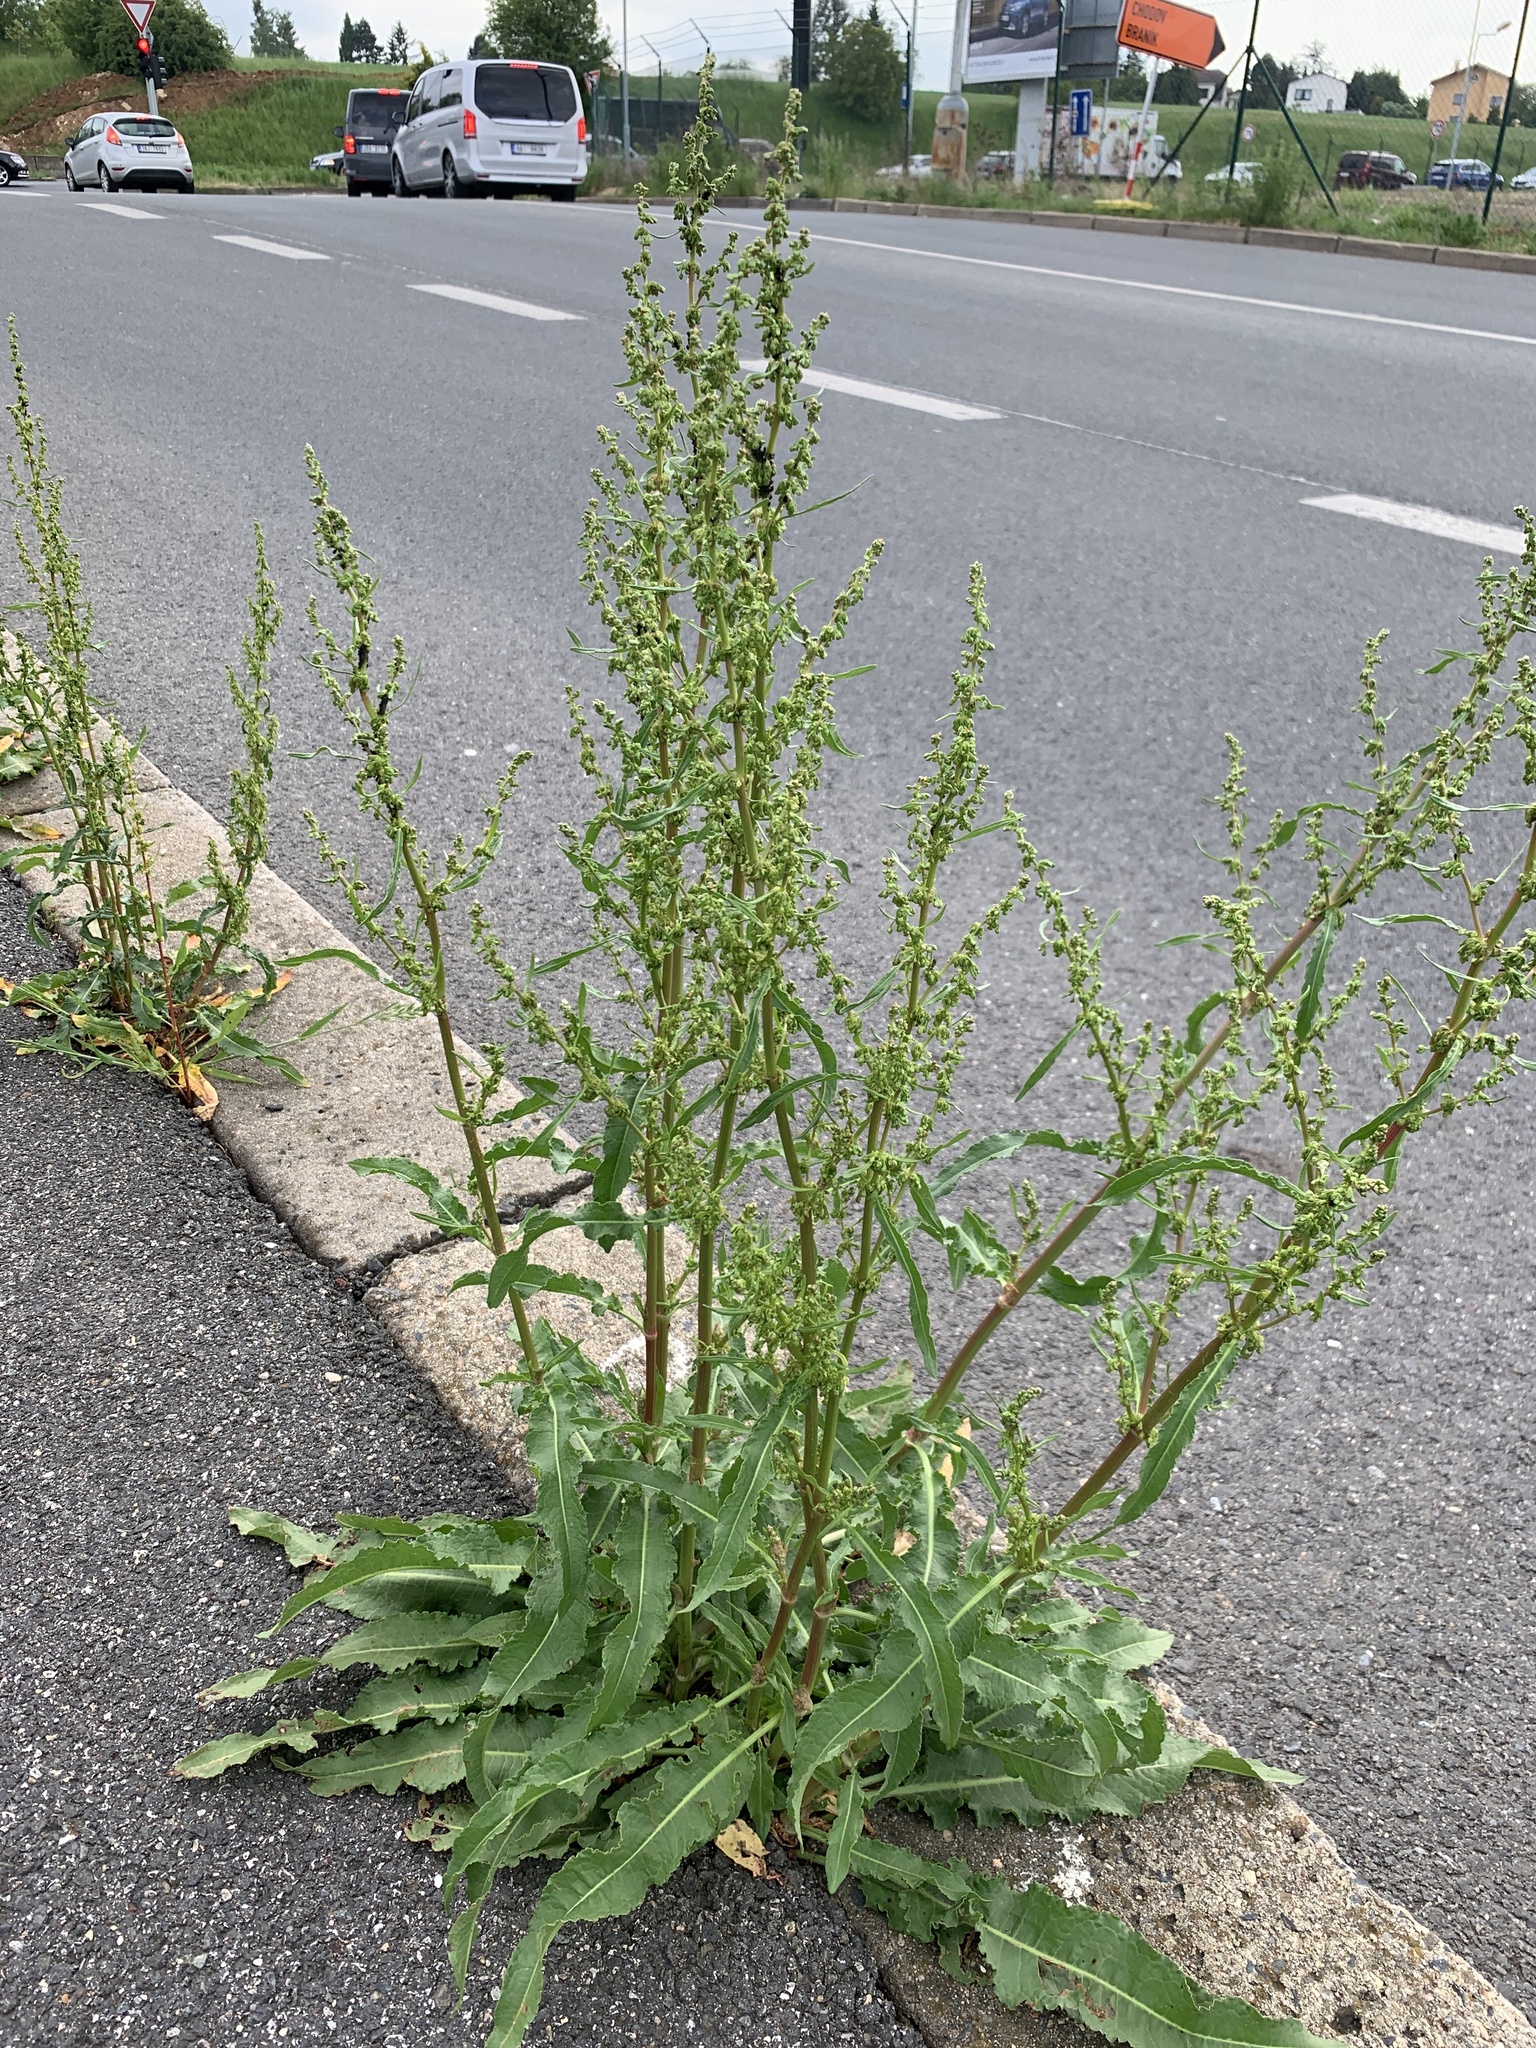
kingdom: Plantae
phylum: Tracheophyta
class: Magnoliopsida
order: Caryophyllales
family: Polygonaceae
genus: Rumex
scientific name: Rumex crispus
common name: Curled dock
